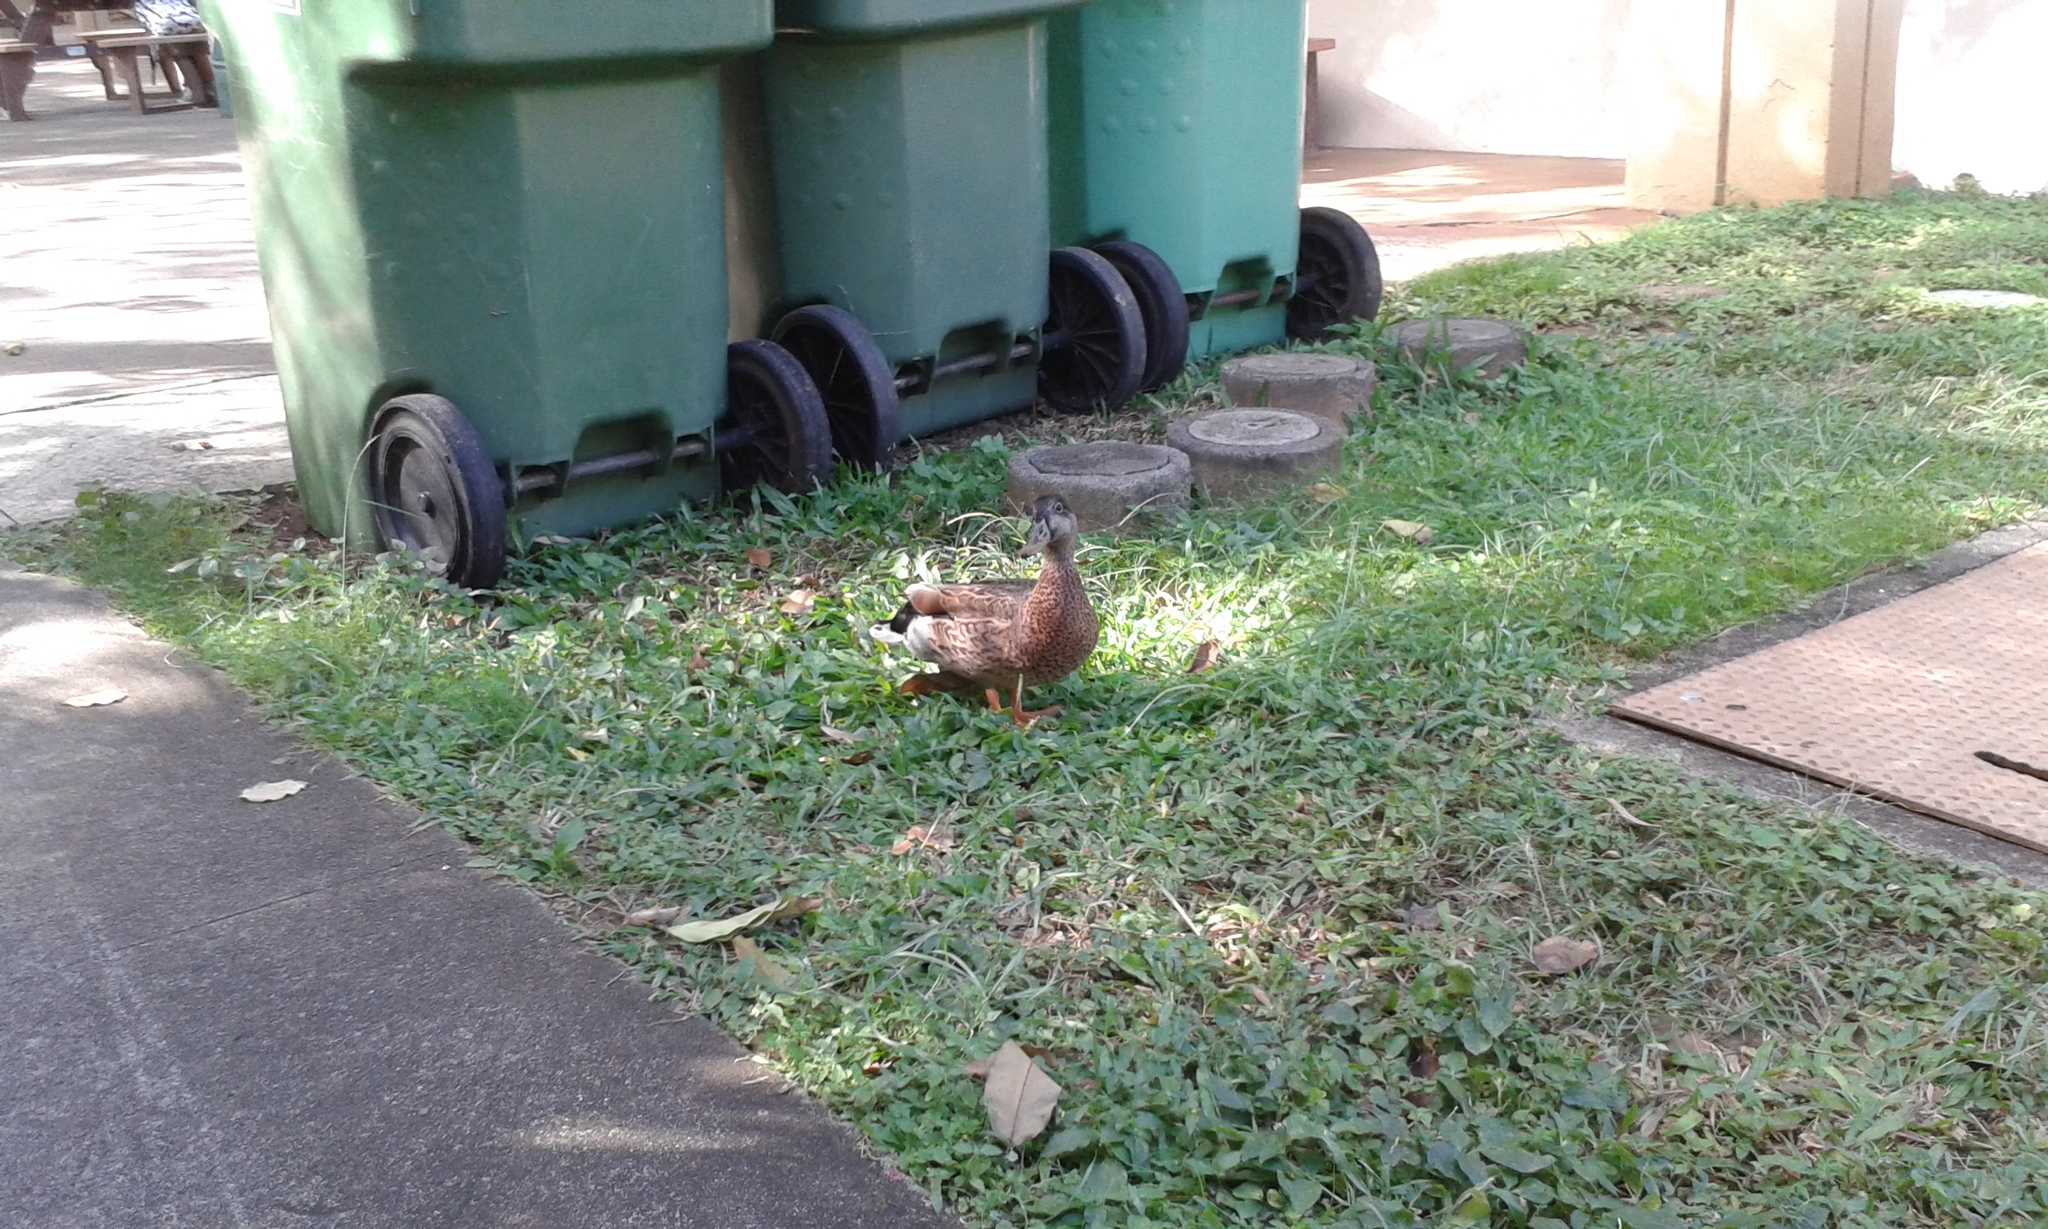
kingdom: Animalia
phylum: Chordata
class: Aves
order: Anseriformes
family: Anatidae
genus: Anas
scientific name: Anas
